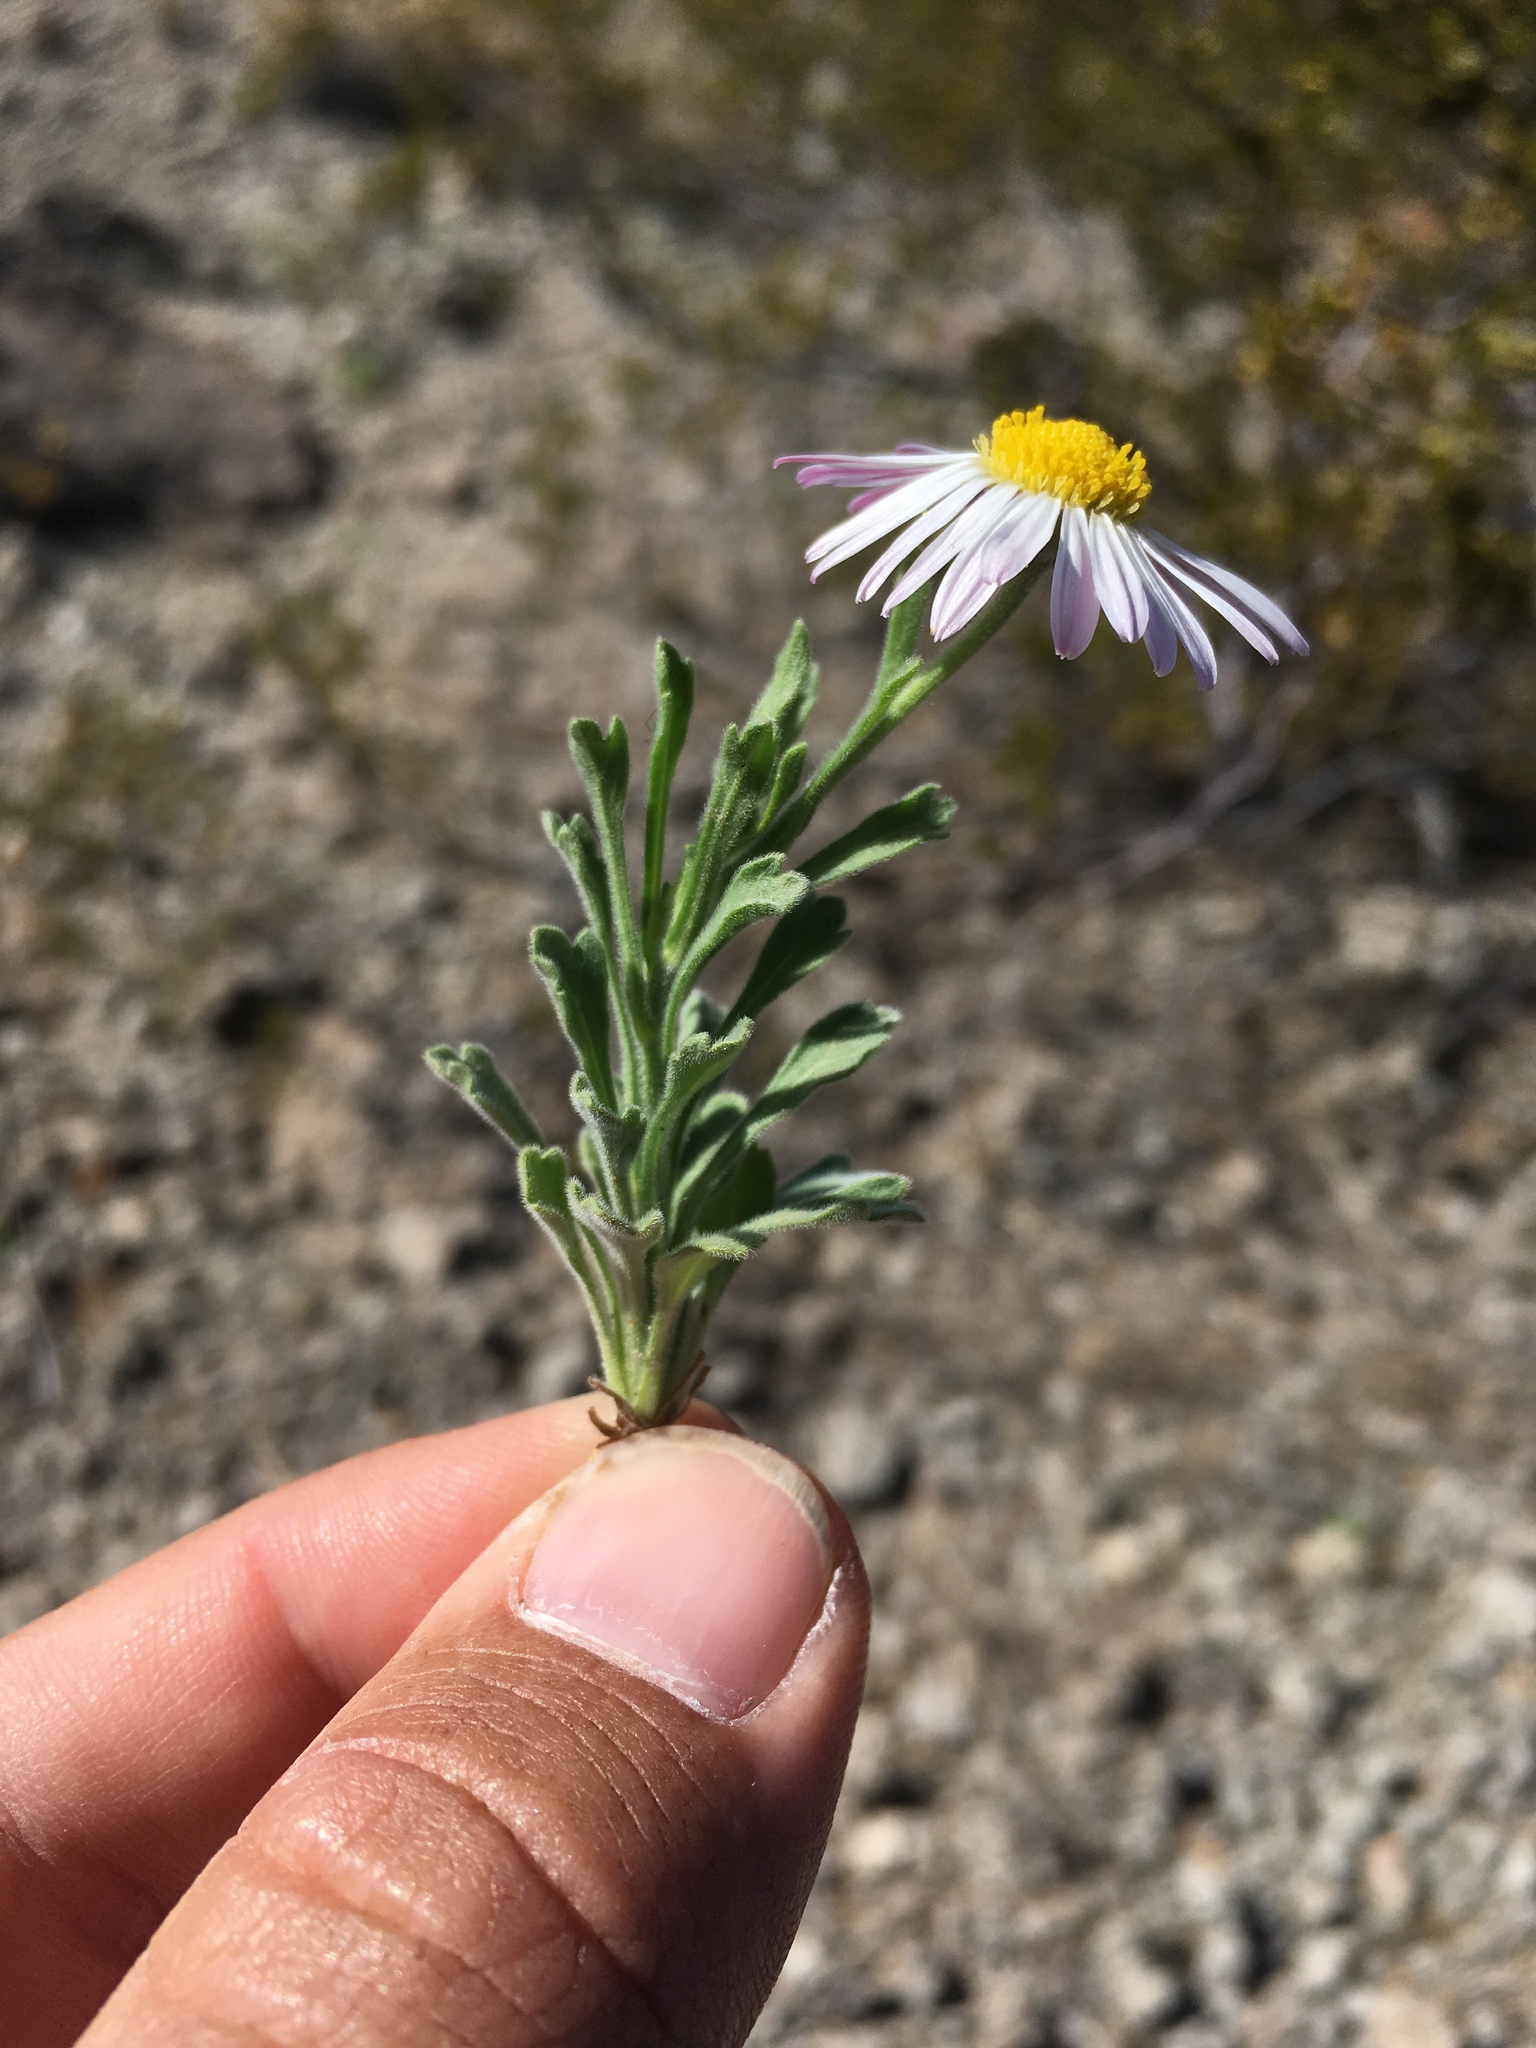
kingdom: Plantae
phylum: Tracheophyta
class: Magnoliopsida
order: Asterales
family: Asteraceae
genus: Aphanostephus
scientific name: Aphanostephus ramosissimus
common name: Plains lazy daisy
